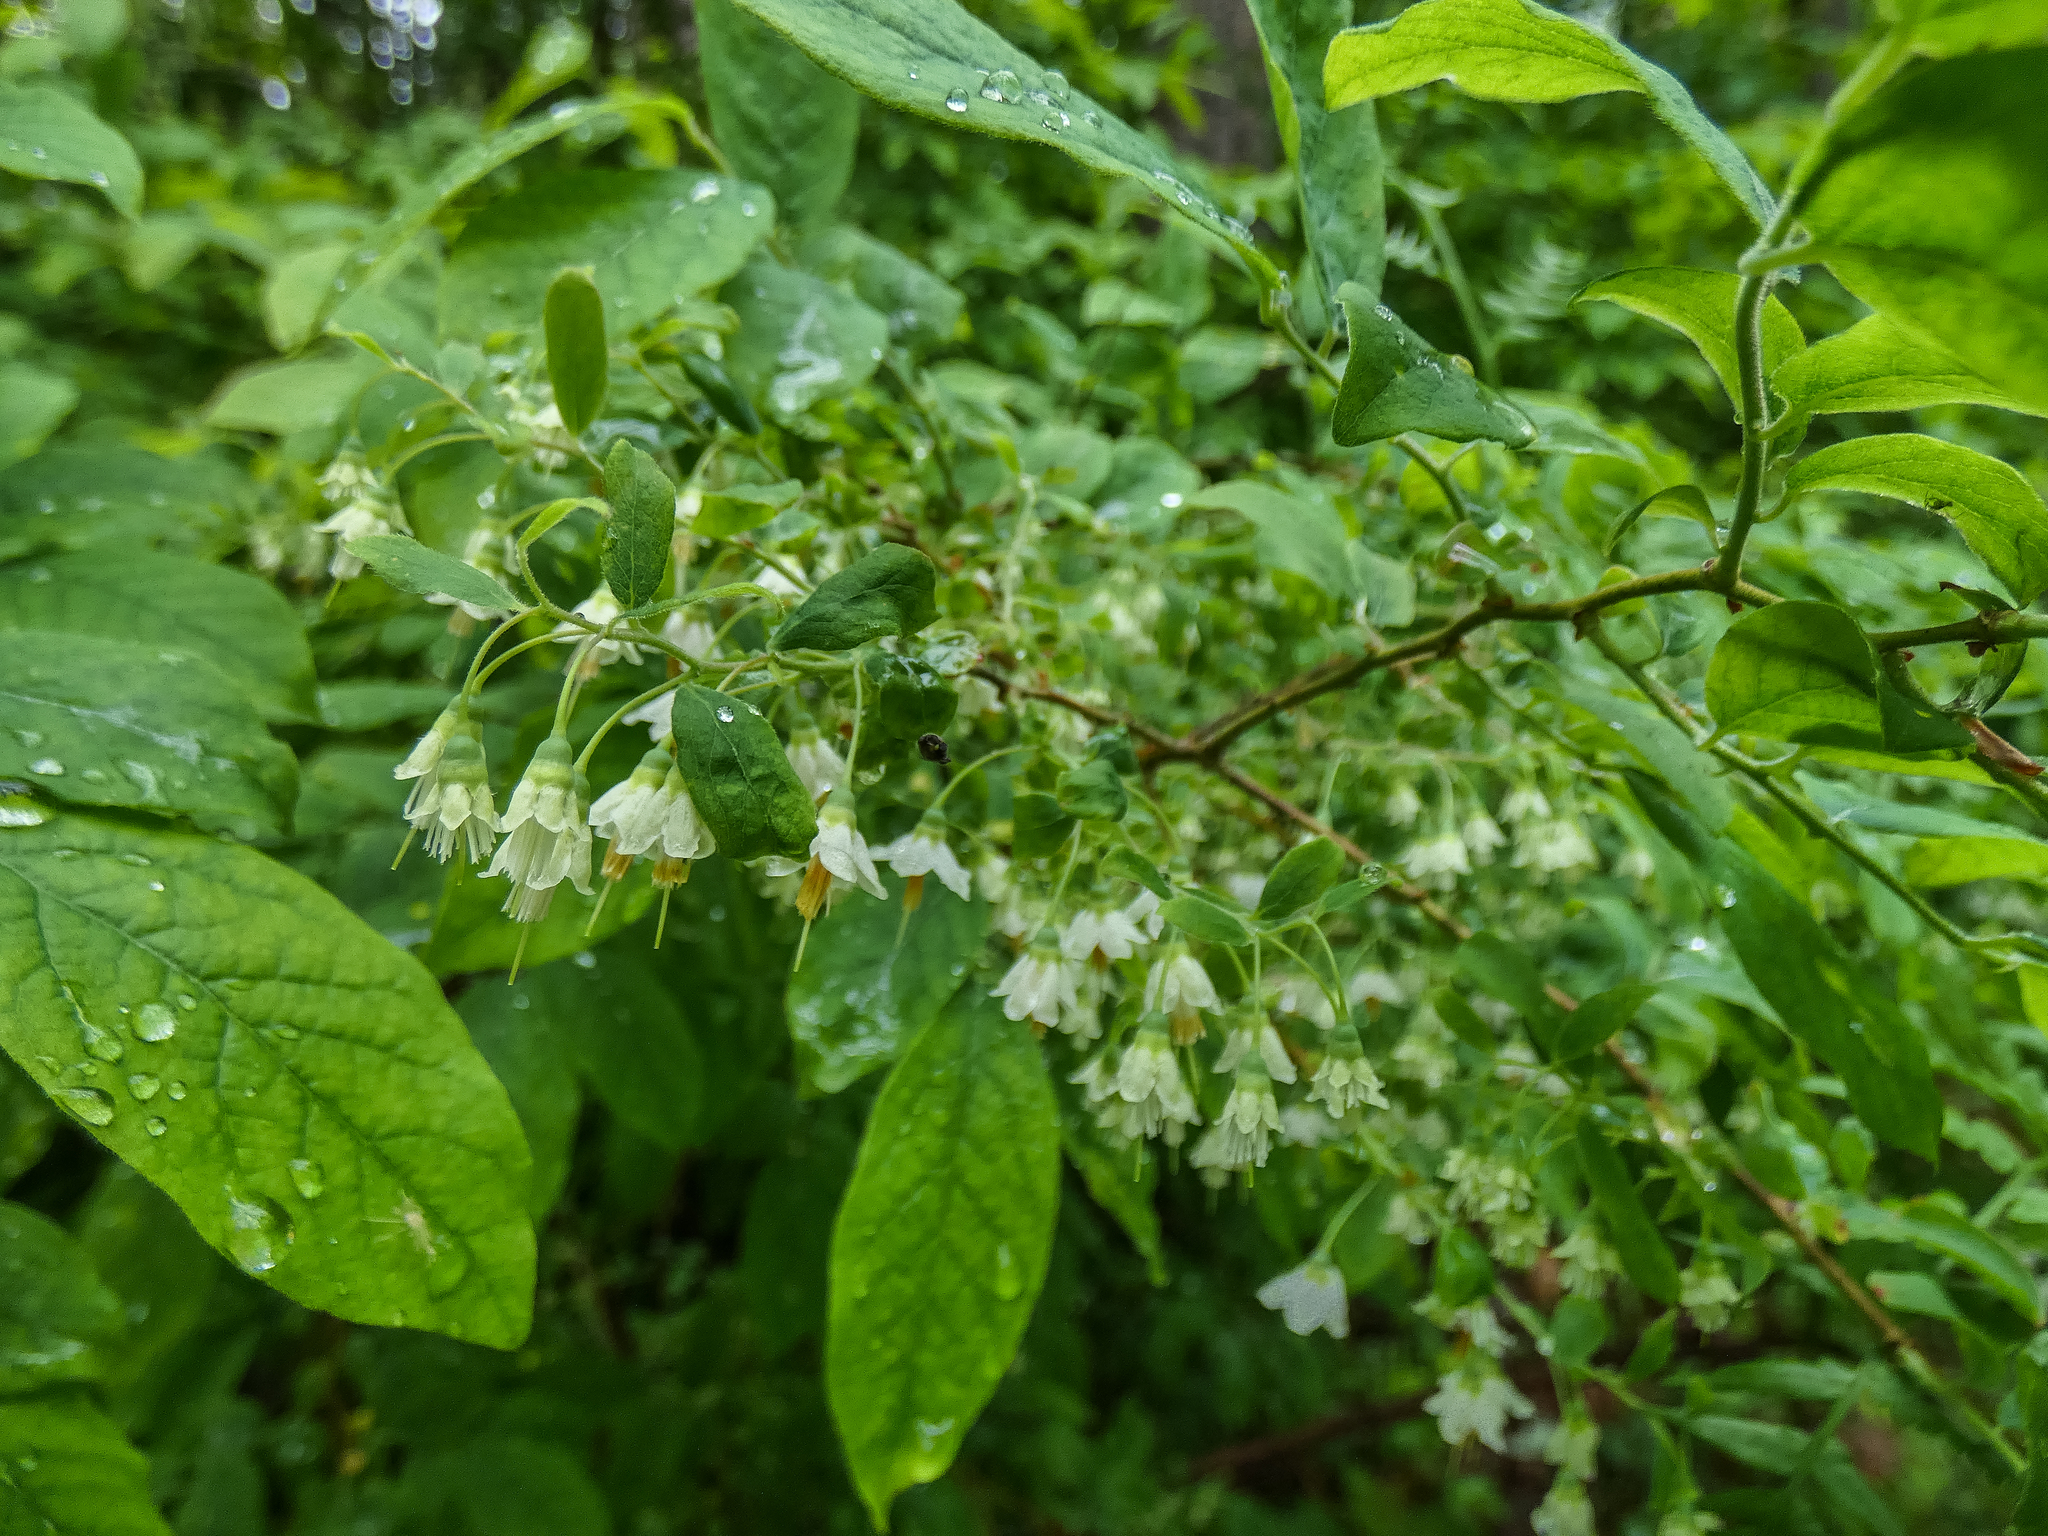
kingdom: Plantae
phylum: Tracheophyta
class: Magnoliopsida
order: Ericales
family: Ericaceae
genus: Vaccinium
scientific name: Vaccinium stamineum
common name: Deerberry
